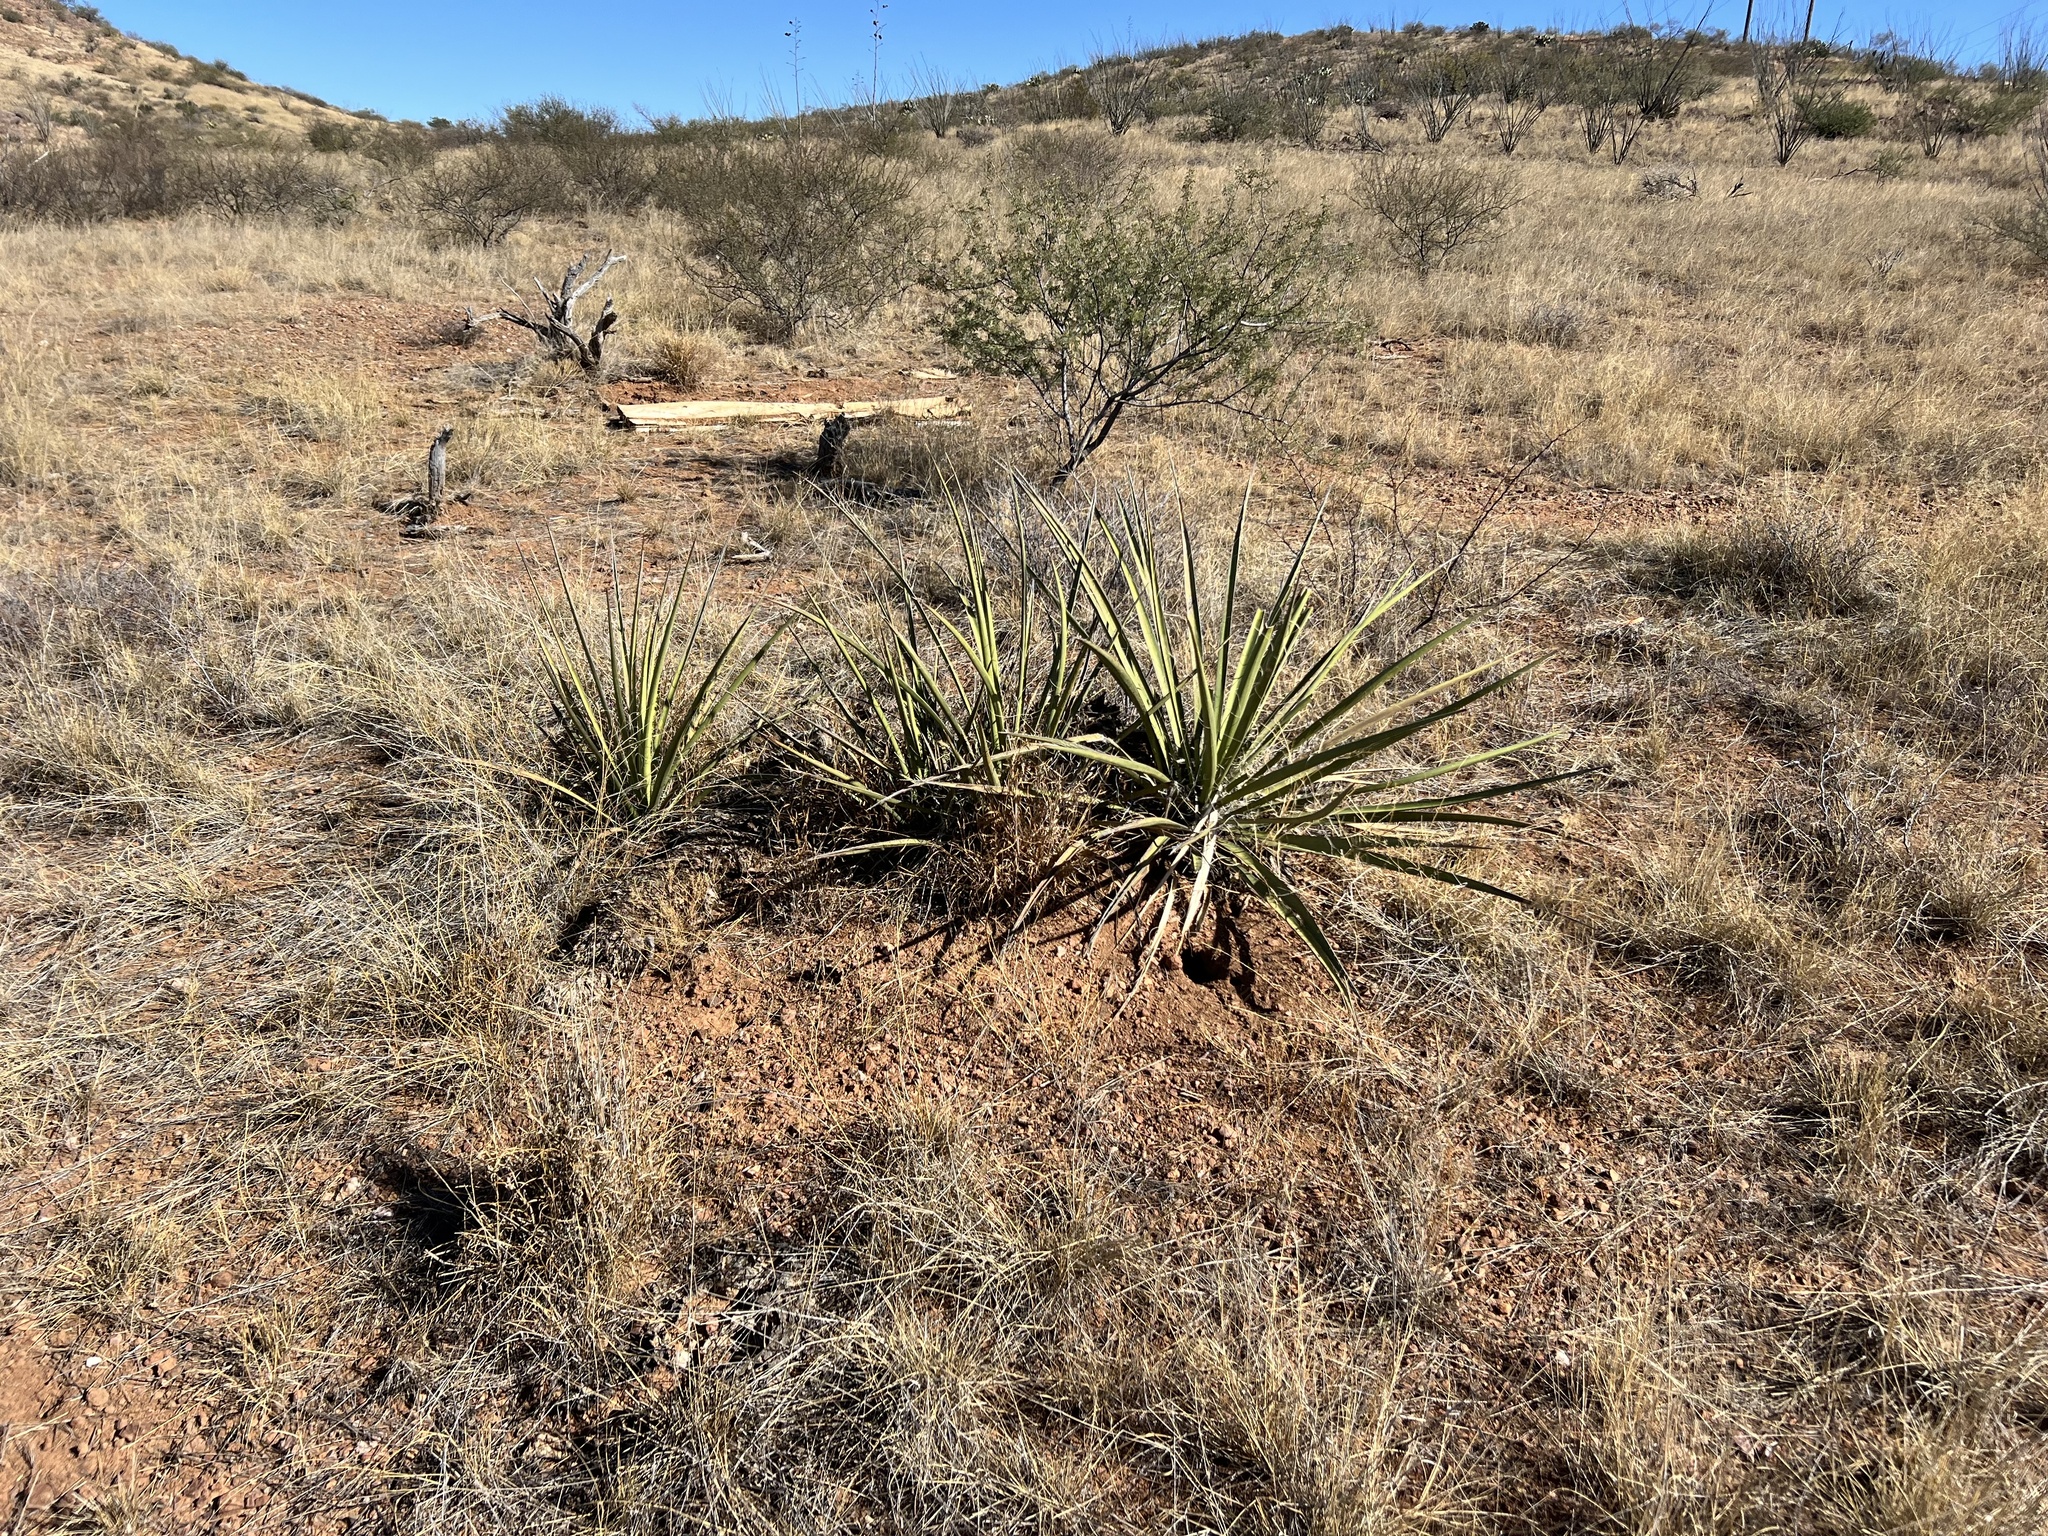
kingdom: Plantae
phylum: Tracheophyta
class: Liliopsida
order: Asparagales
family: Asparagaceae
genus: Yucca
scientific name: Yucca baccata
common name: Banana yucca
